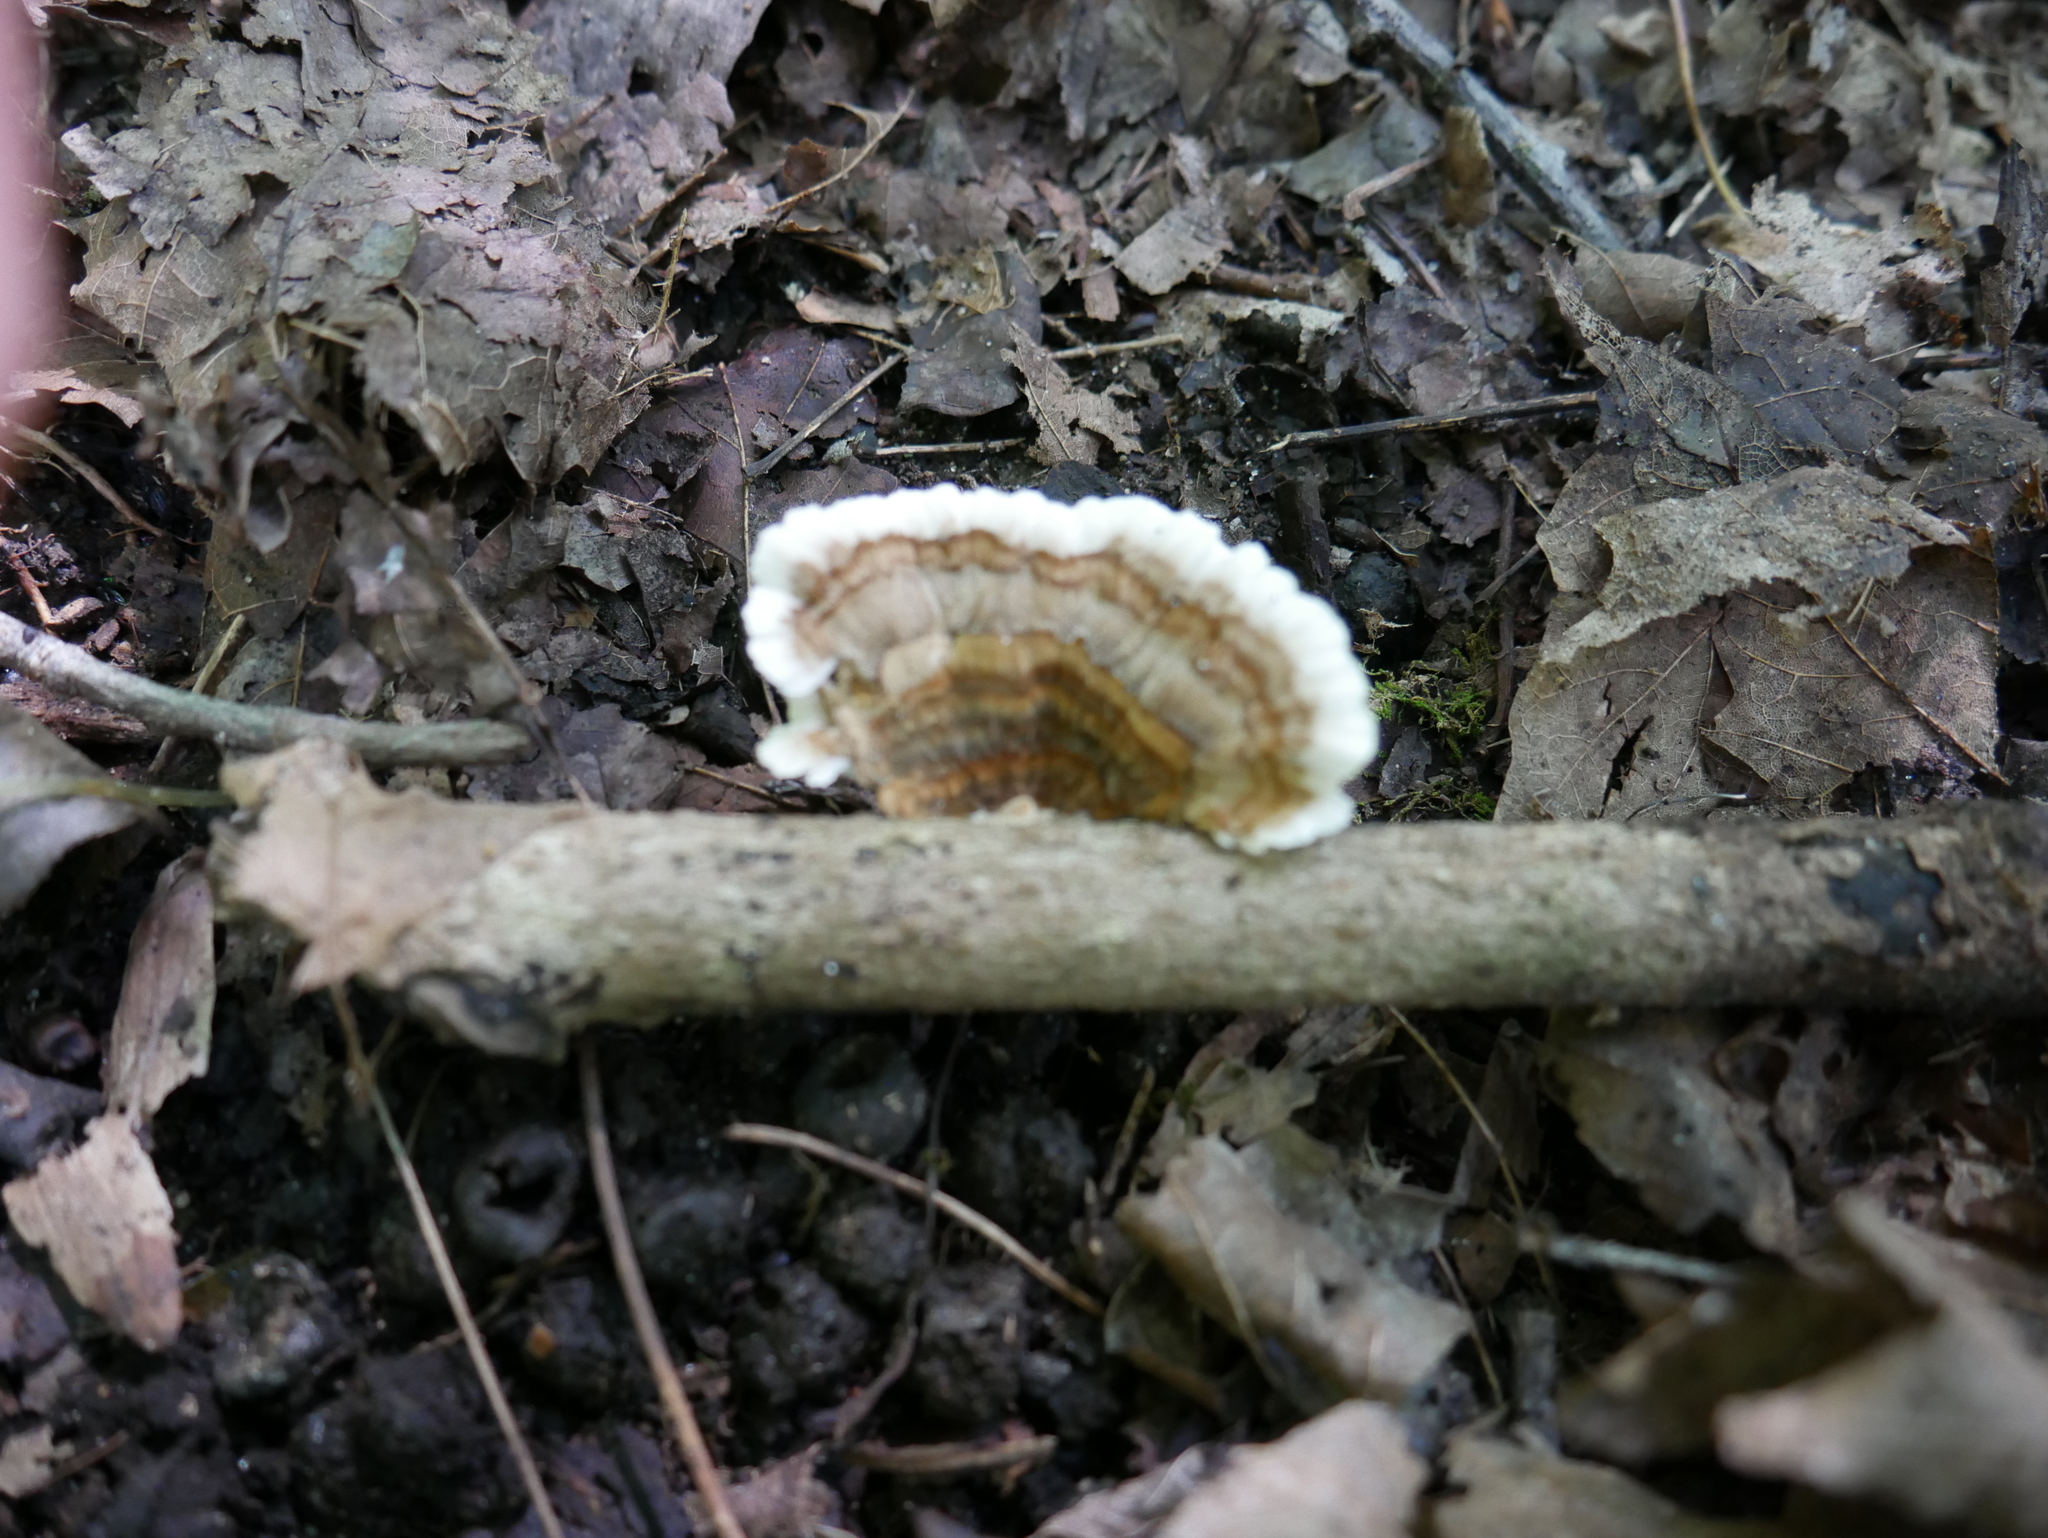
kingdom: Fungi
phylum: Basidiomycota
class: Agaricomycetes
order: Polyporales
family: Polyporaceae
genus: Trametes
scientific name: Trametes versicolor
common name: Turkeytail
